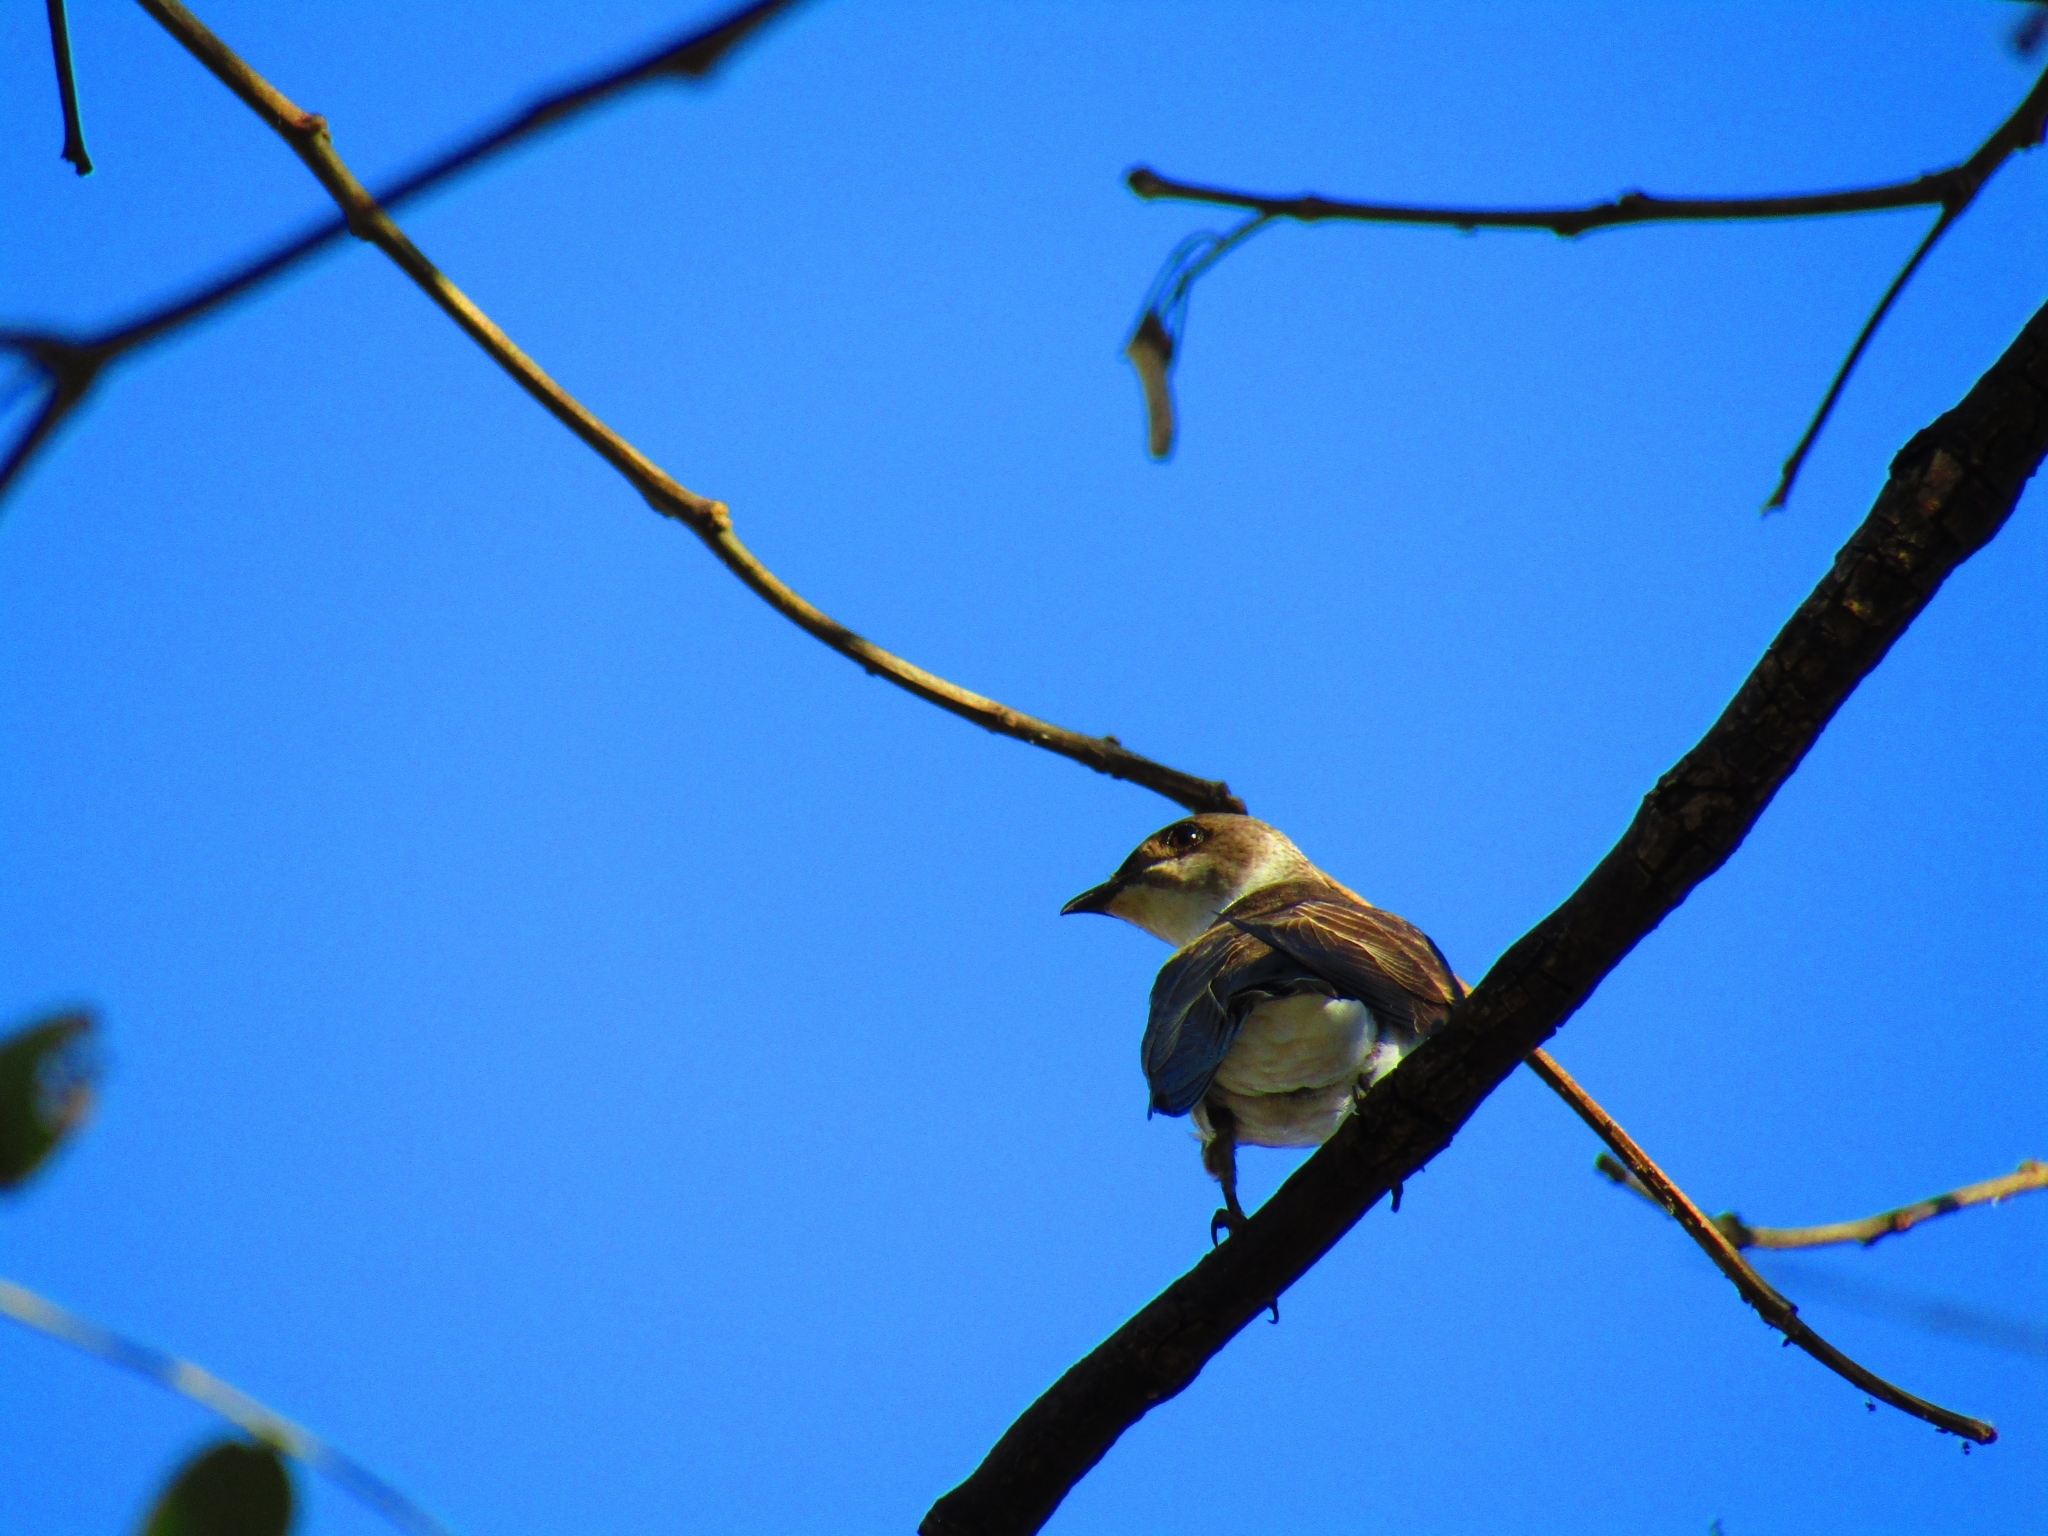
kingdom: Animalia
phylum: Chordata
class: Aves
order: Passeriformes
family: Hirundinidae
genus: Progne
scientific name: Progne tapera
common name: Brown-chested martin
